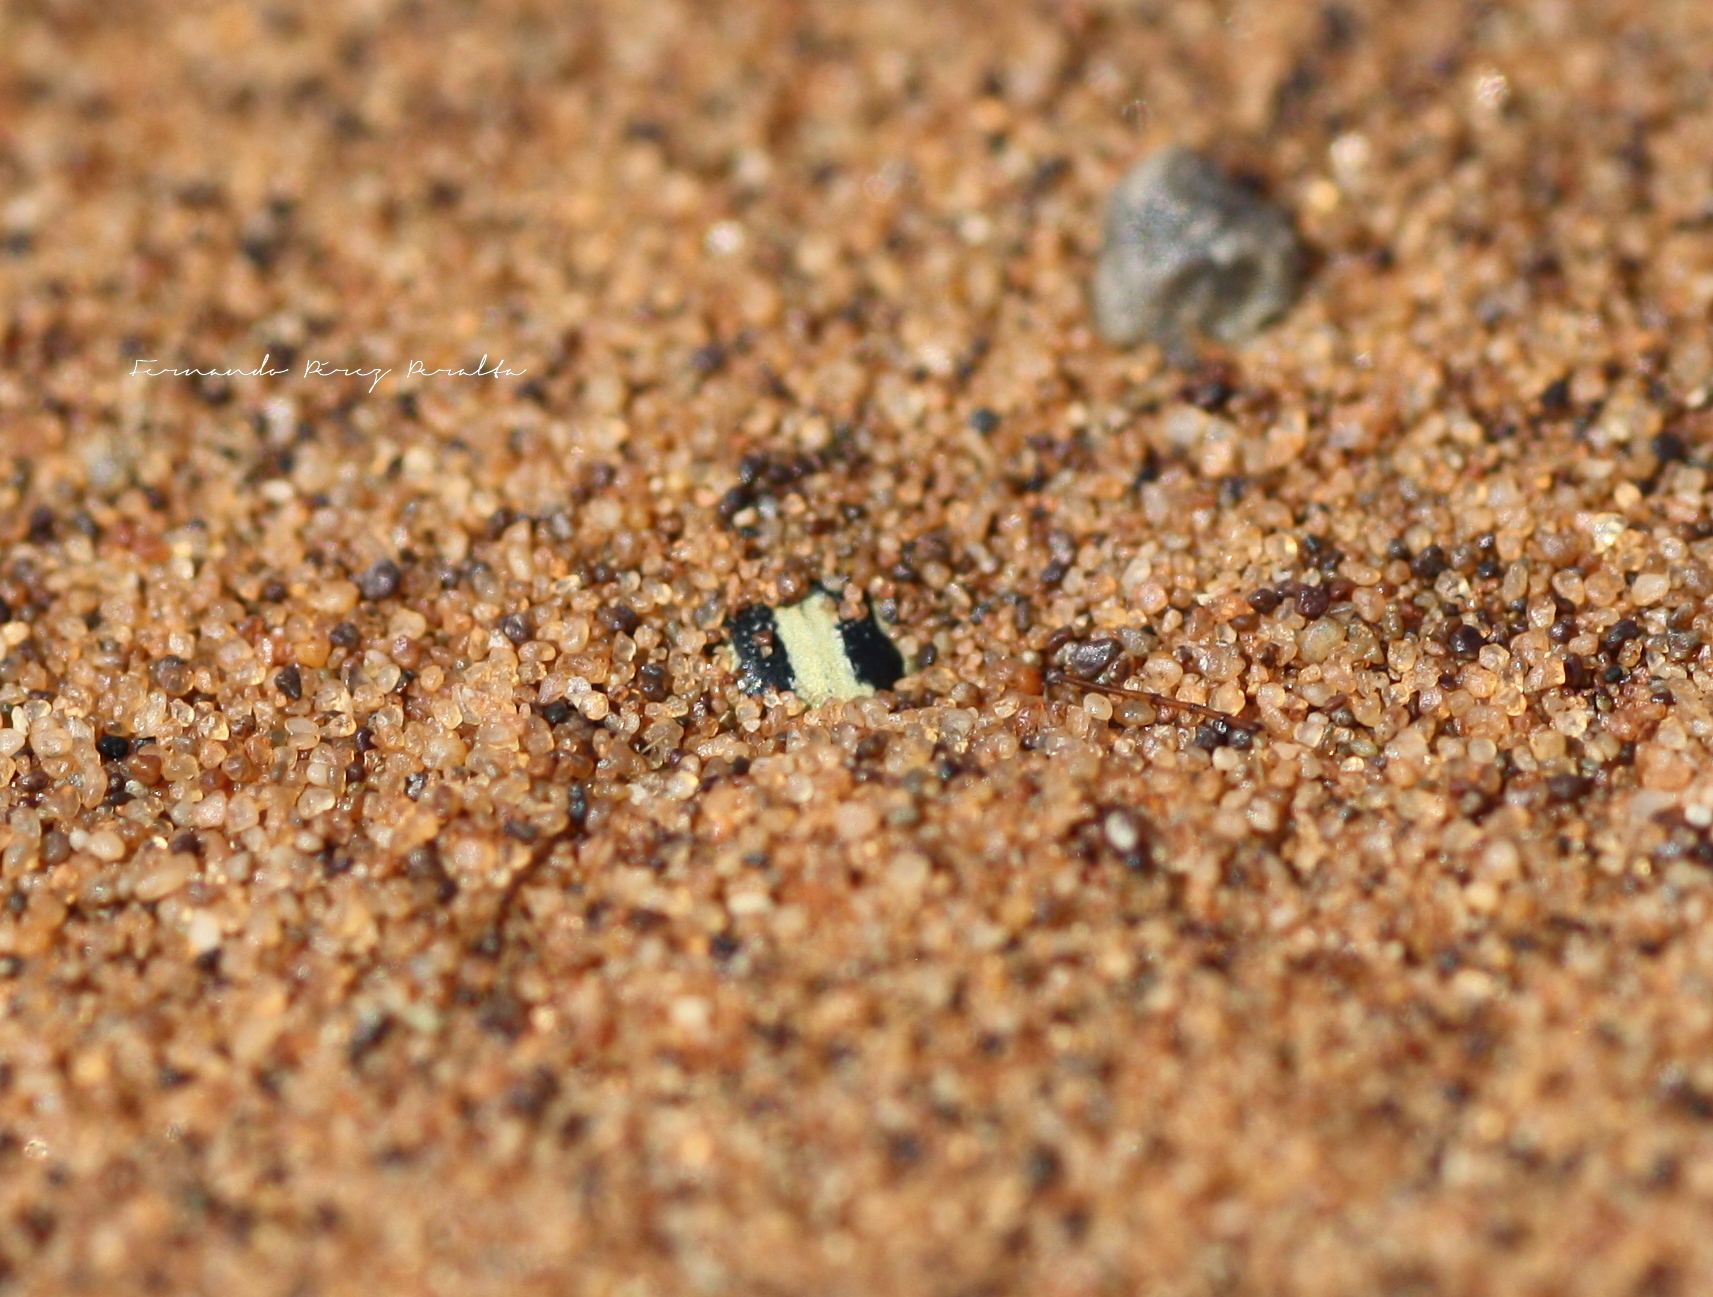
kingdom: Animalia
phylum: Arthropoda
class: Insecta
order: Coleoptera
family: Tenebrionidae
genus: Zophosis
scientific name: Zophosis
